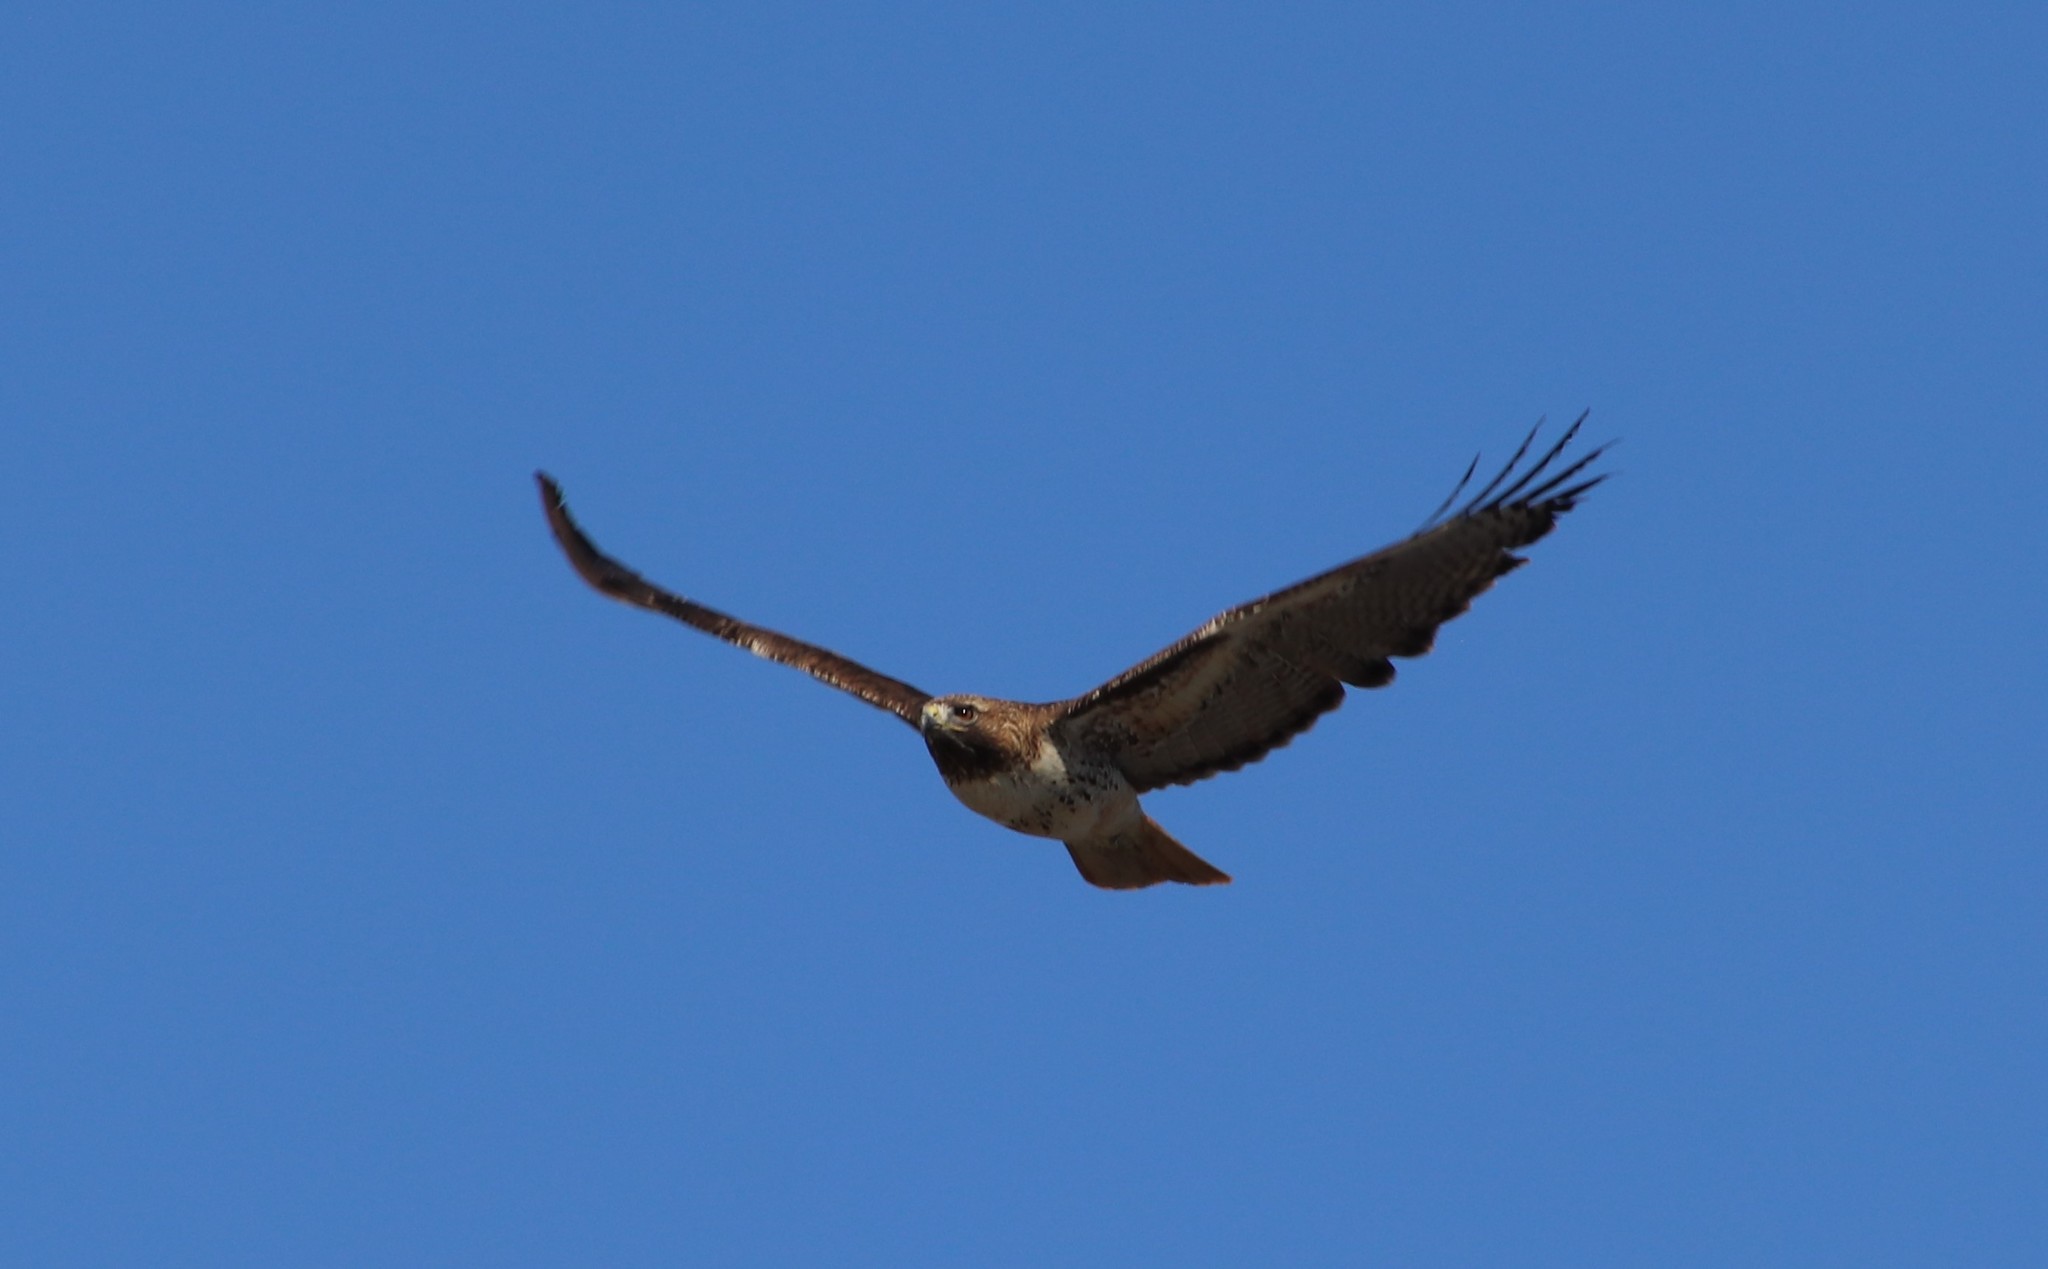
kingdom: Animalia
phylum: Chordata
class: Aves
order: Accipitriformes
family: Accipitridae
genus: Buteo
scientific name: Buteo jamaicensis
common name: Red-tailed hawk
